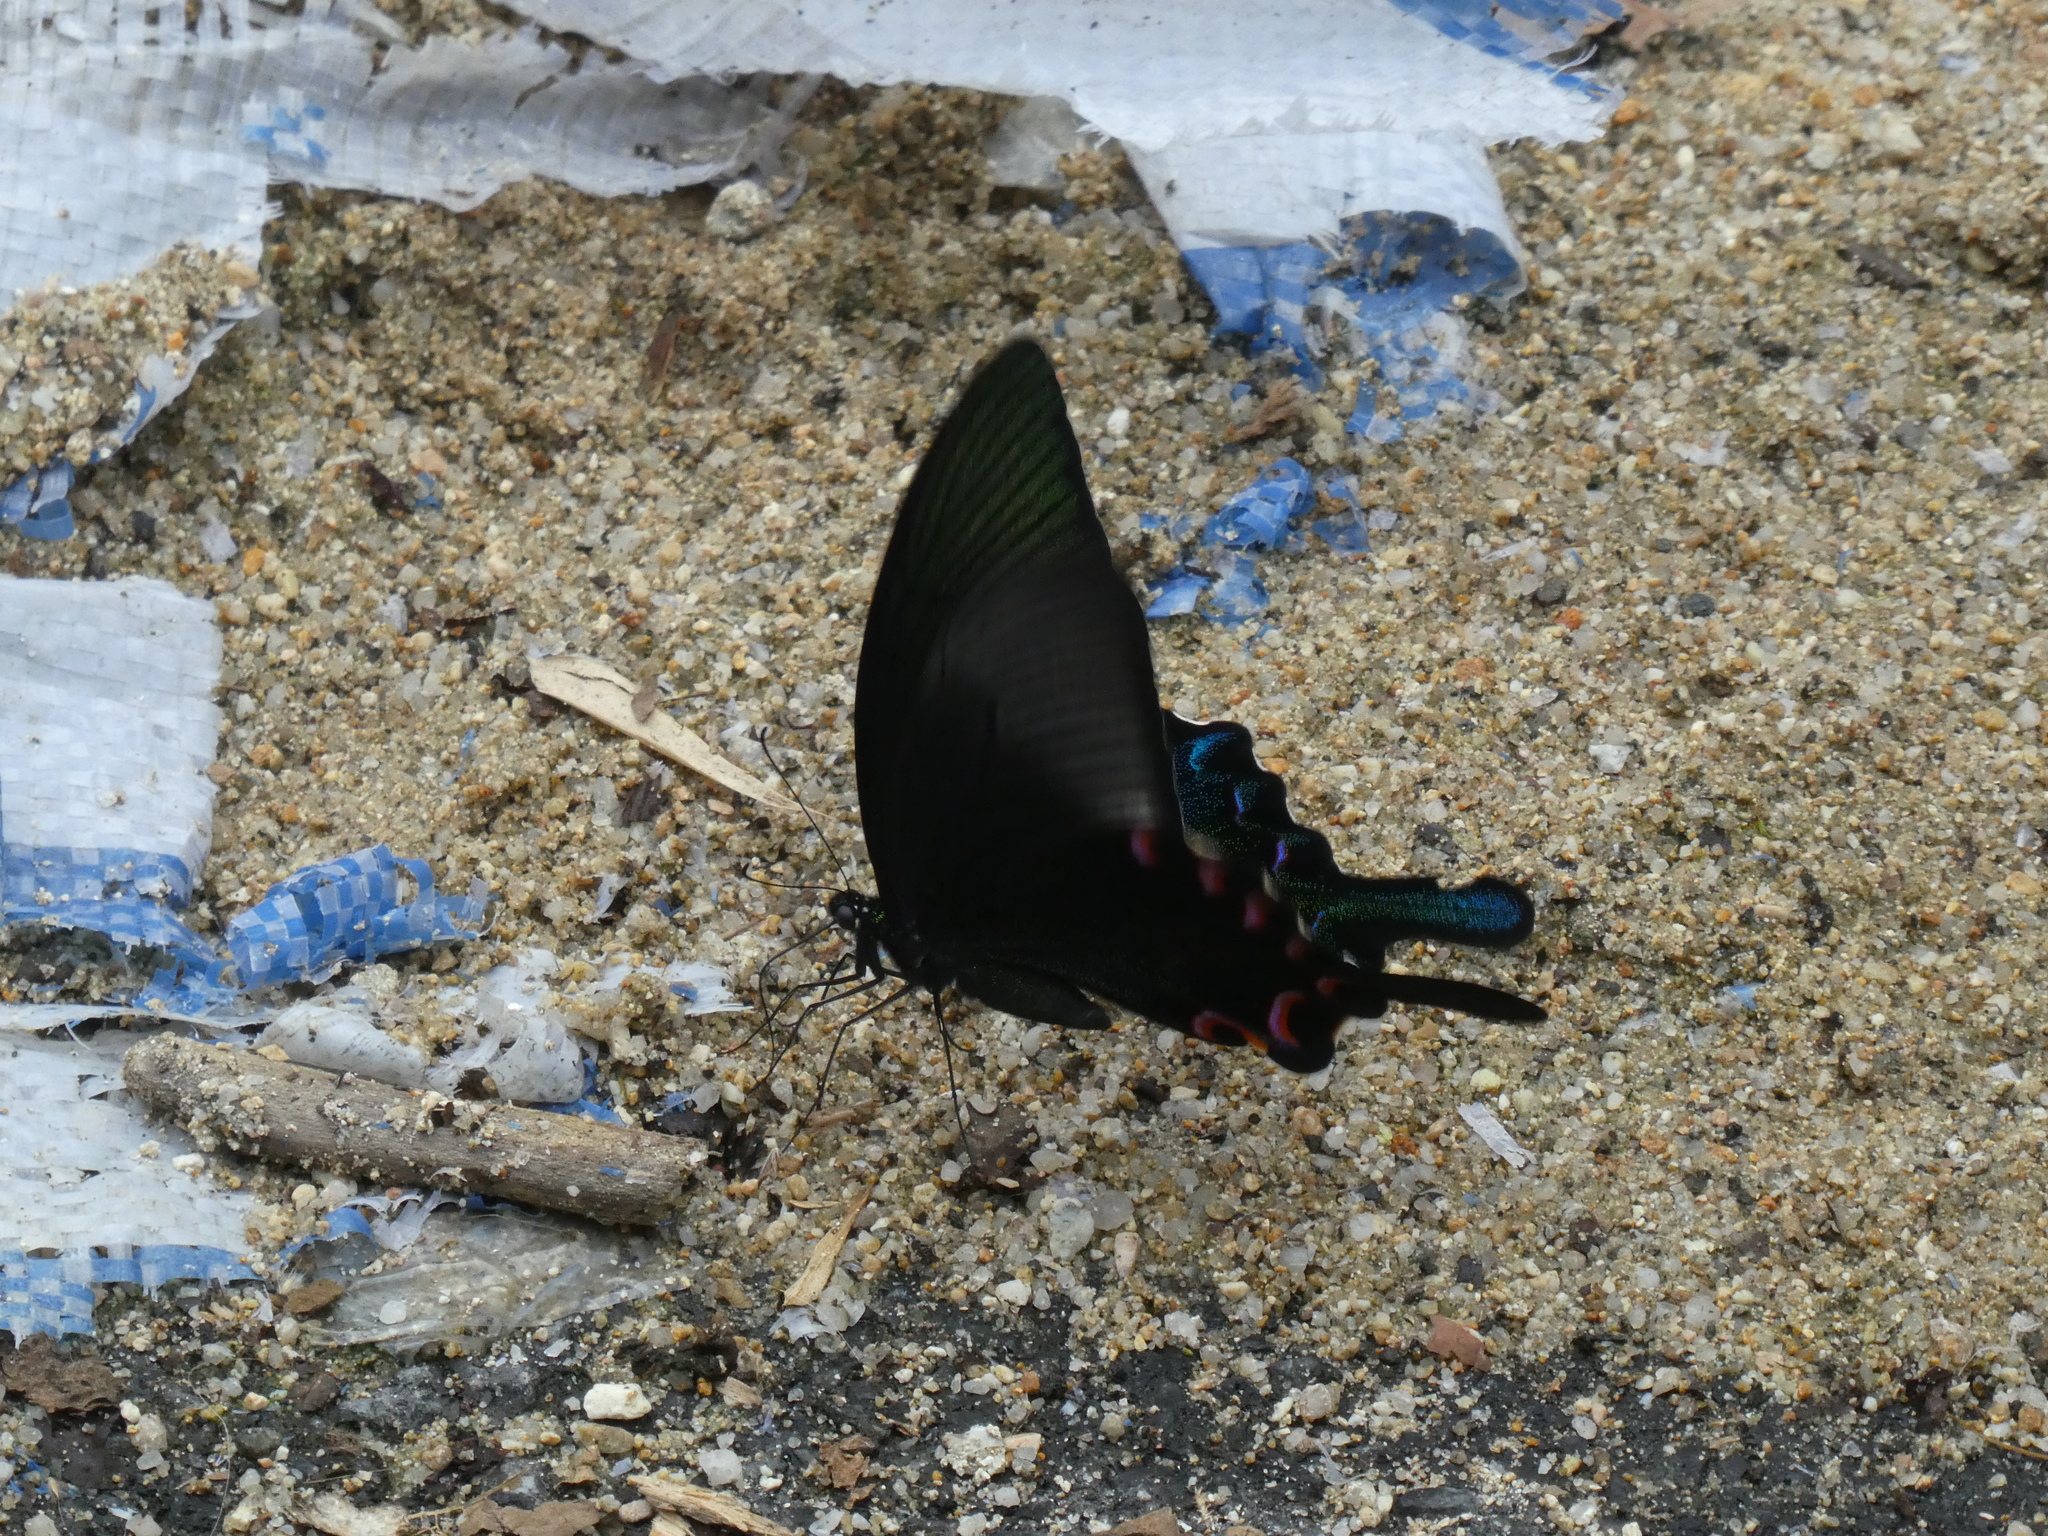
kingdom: Animalia
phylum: Arthropoda
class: Insecta
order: Lepidoptera
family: Papilionidae
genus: Papilio
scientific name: Papilio bianor
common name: Common peacock
